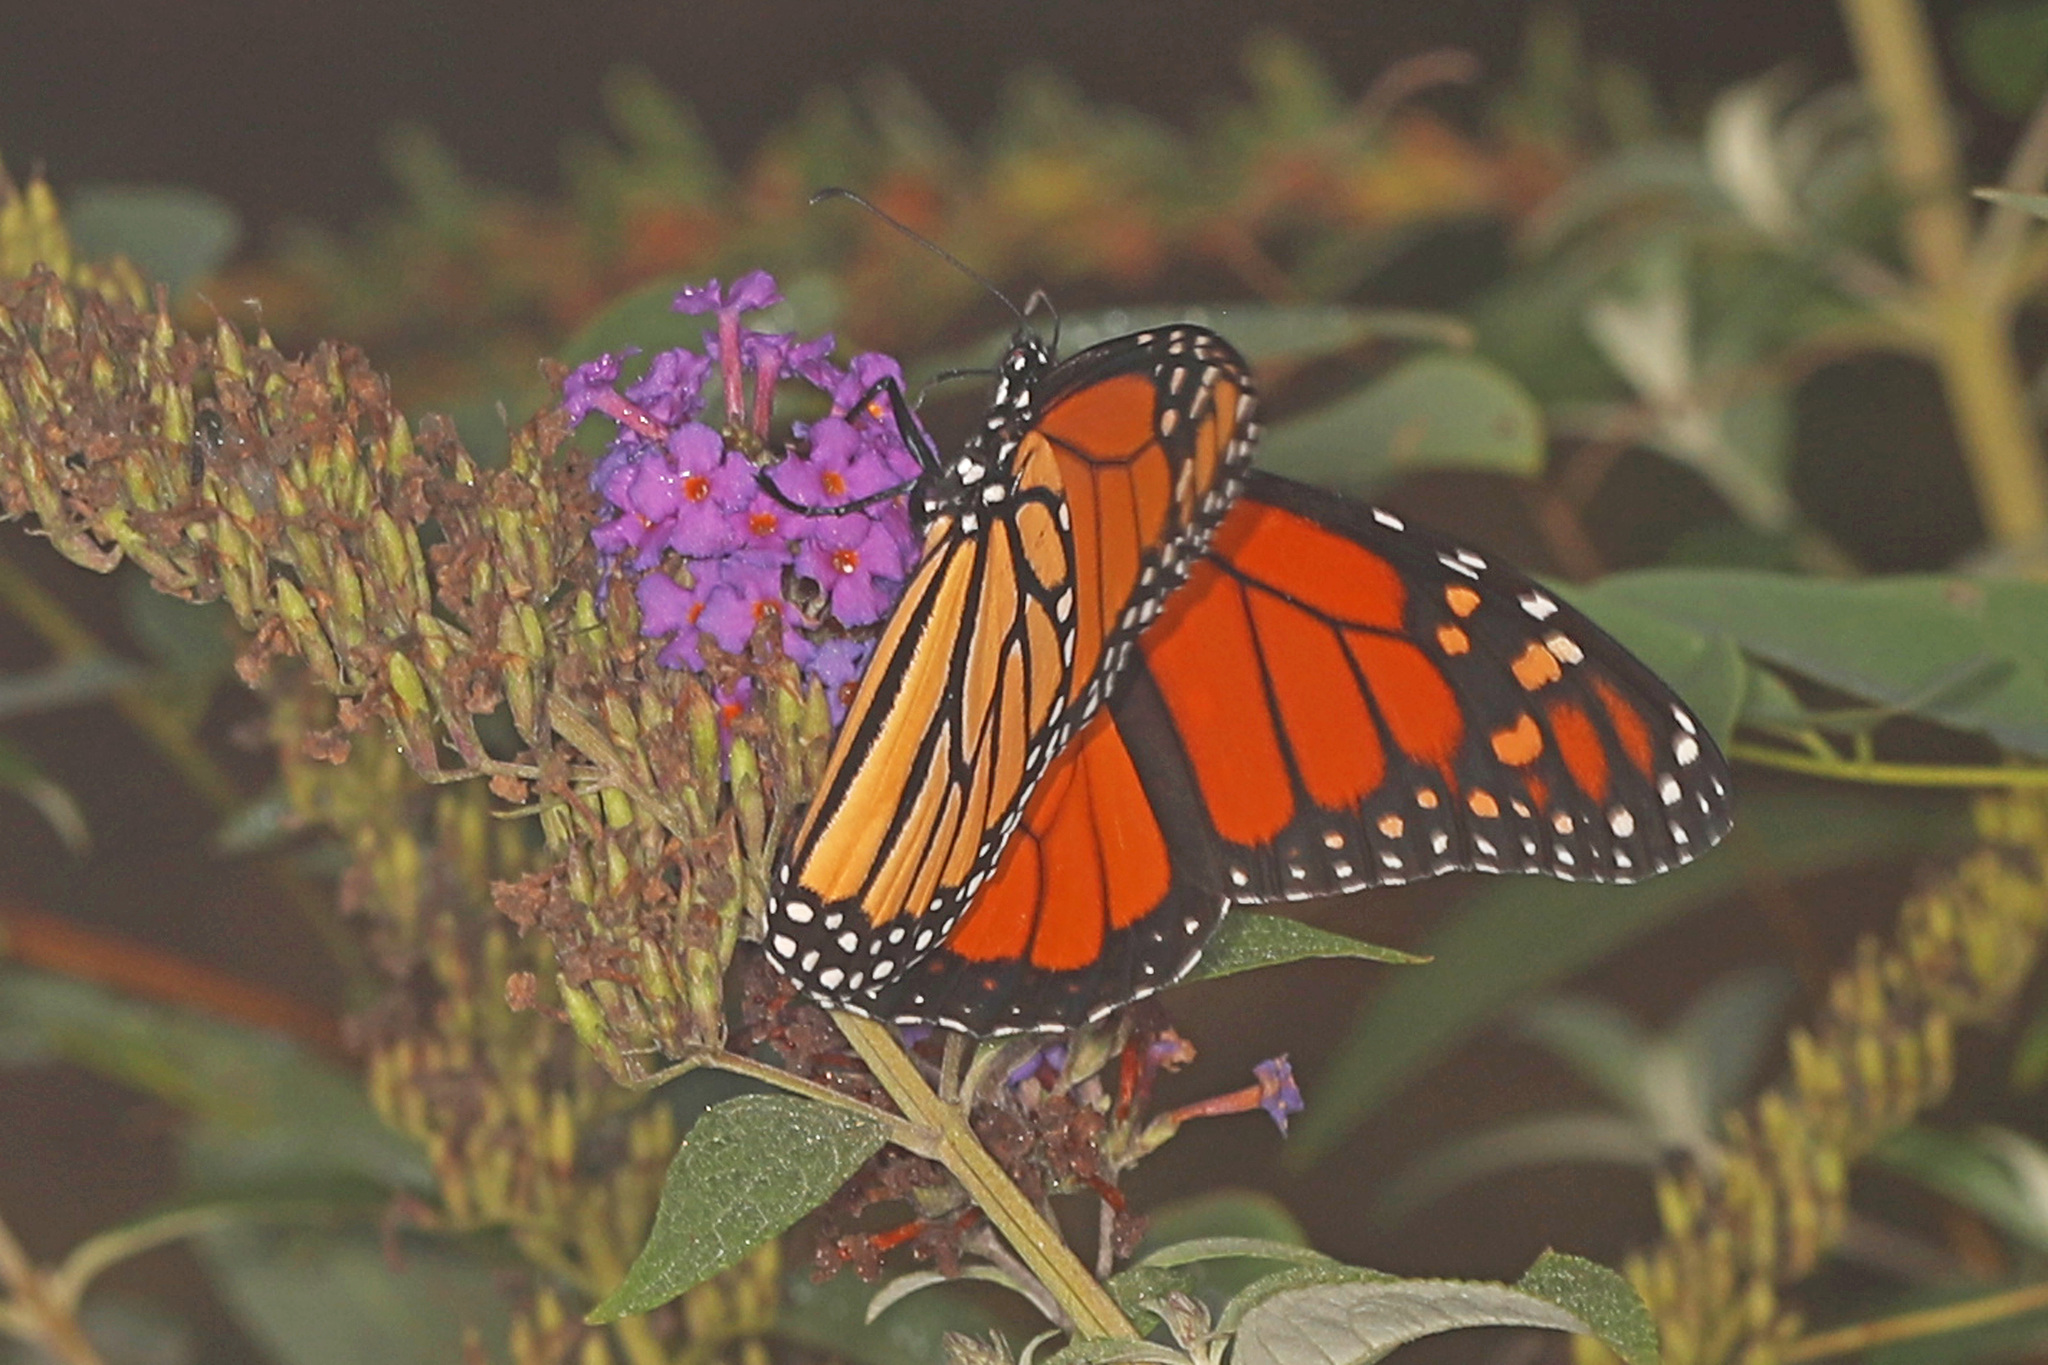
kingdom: Animalia
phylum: Arthropoda
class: Insecta
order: Lepidoptera
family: Nymphalidae
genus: Danaus
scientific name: Danaus plexippus
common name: Monarch
